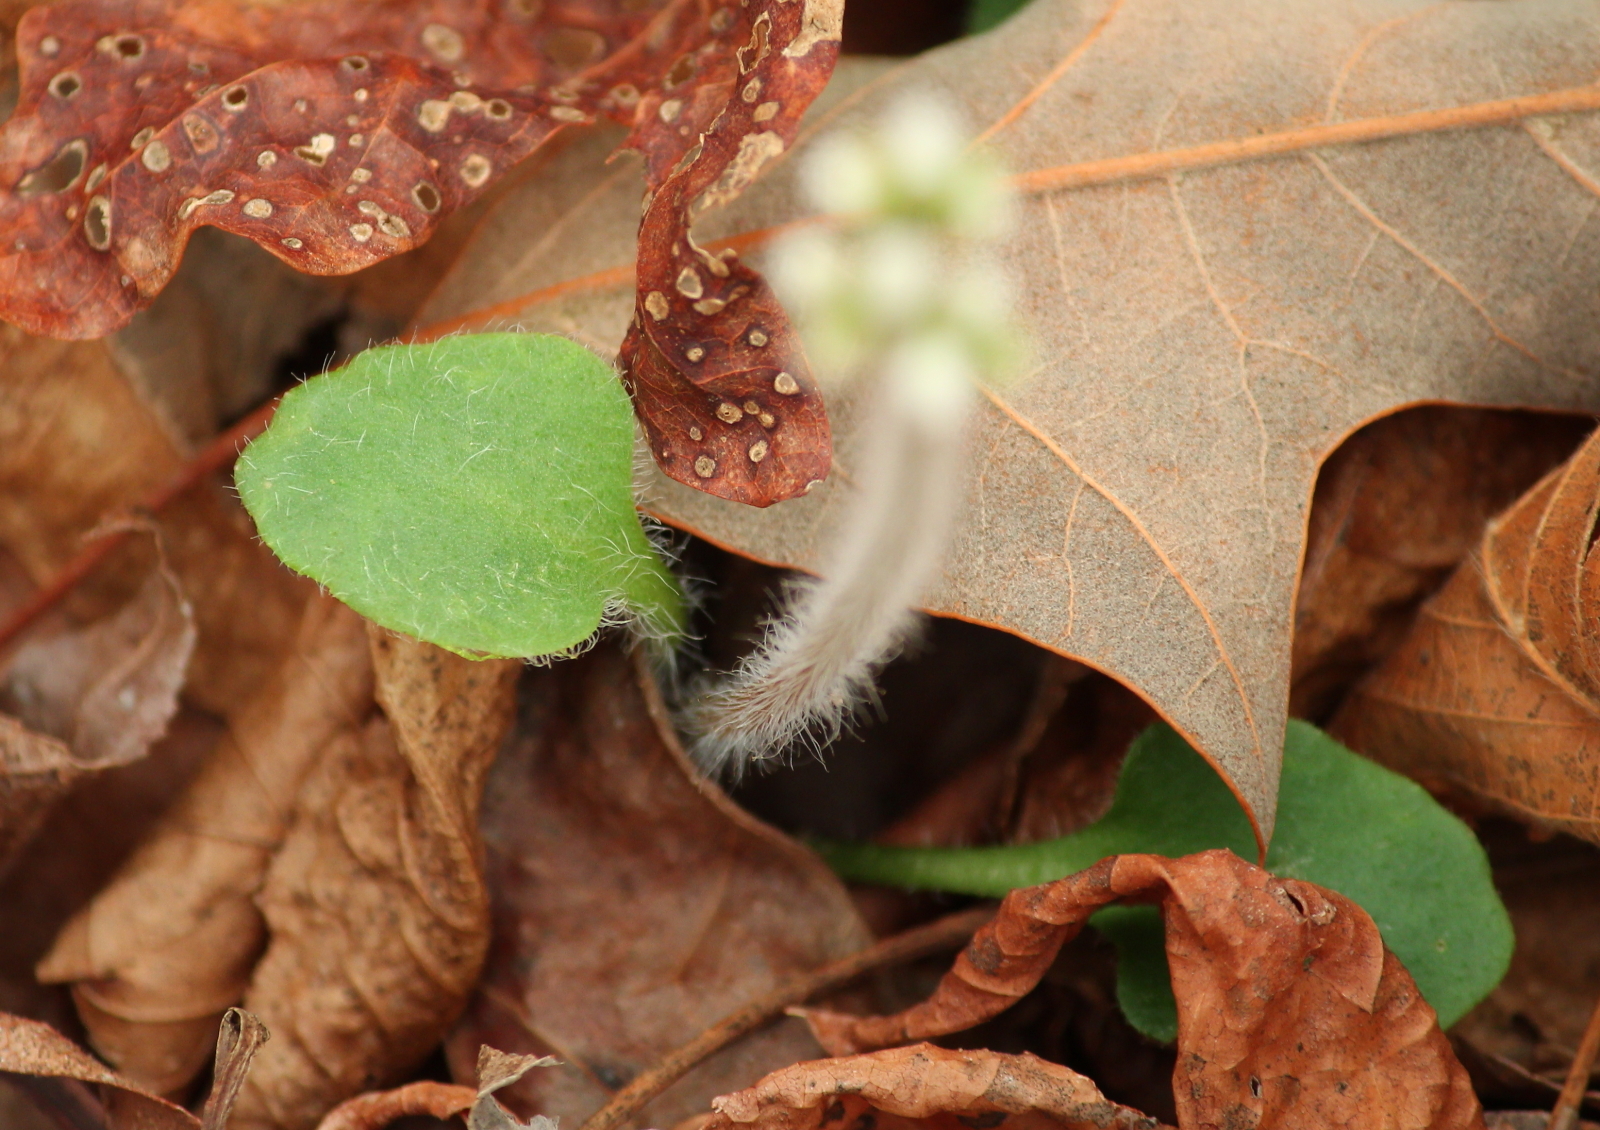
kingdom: Plantae
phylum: Tracheophyta
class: Magnoliopsida
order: Saxifragales
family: Saxifragaceae
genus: Micranthes
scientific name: Micranthes palmeri
